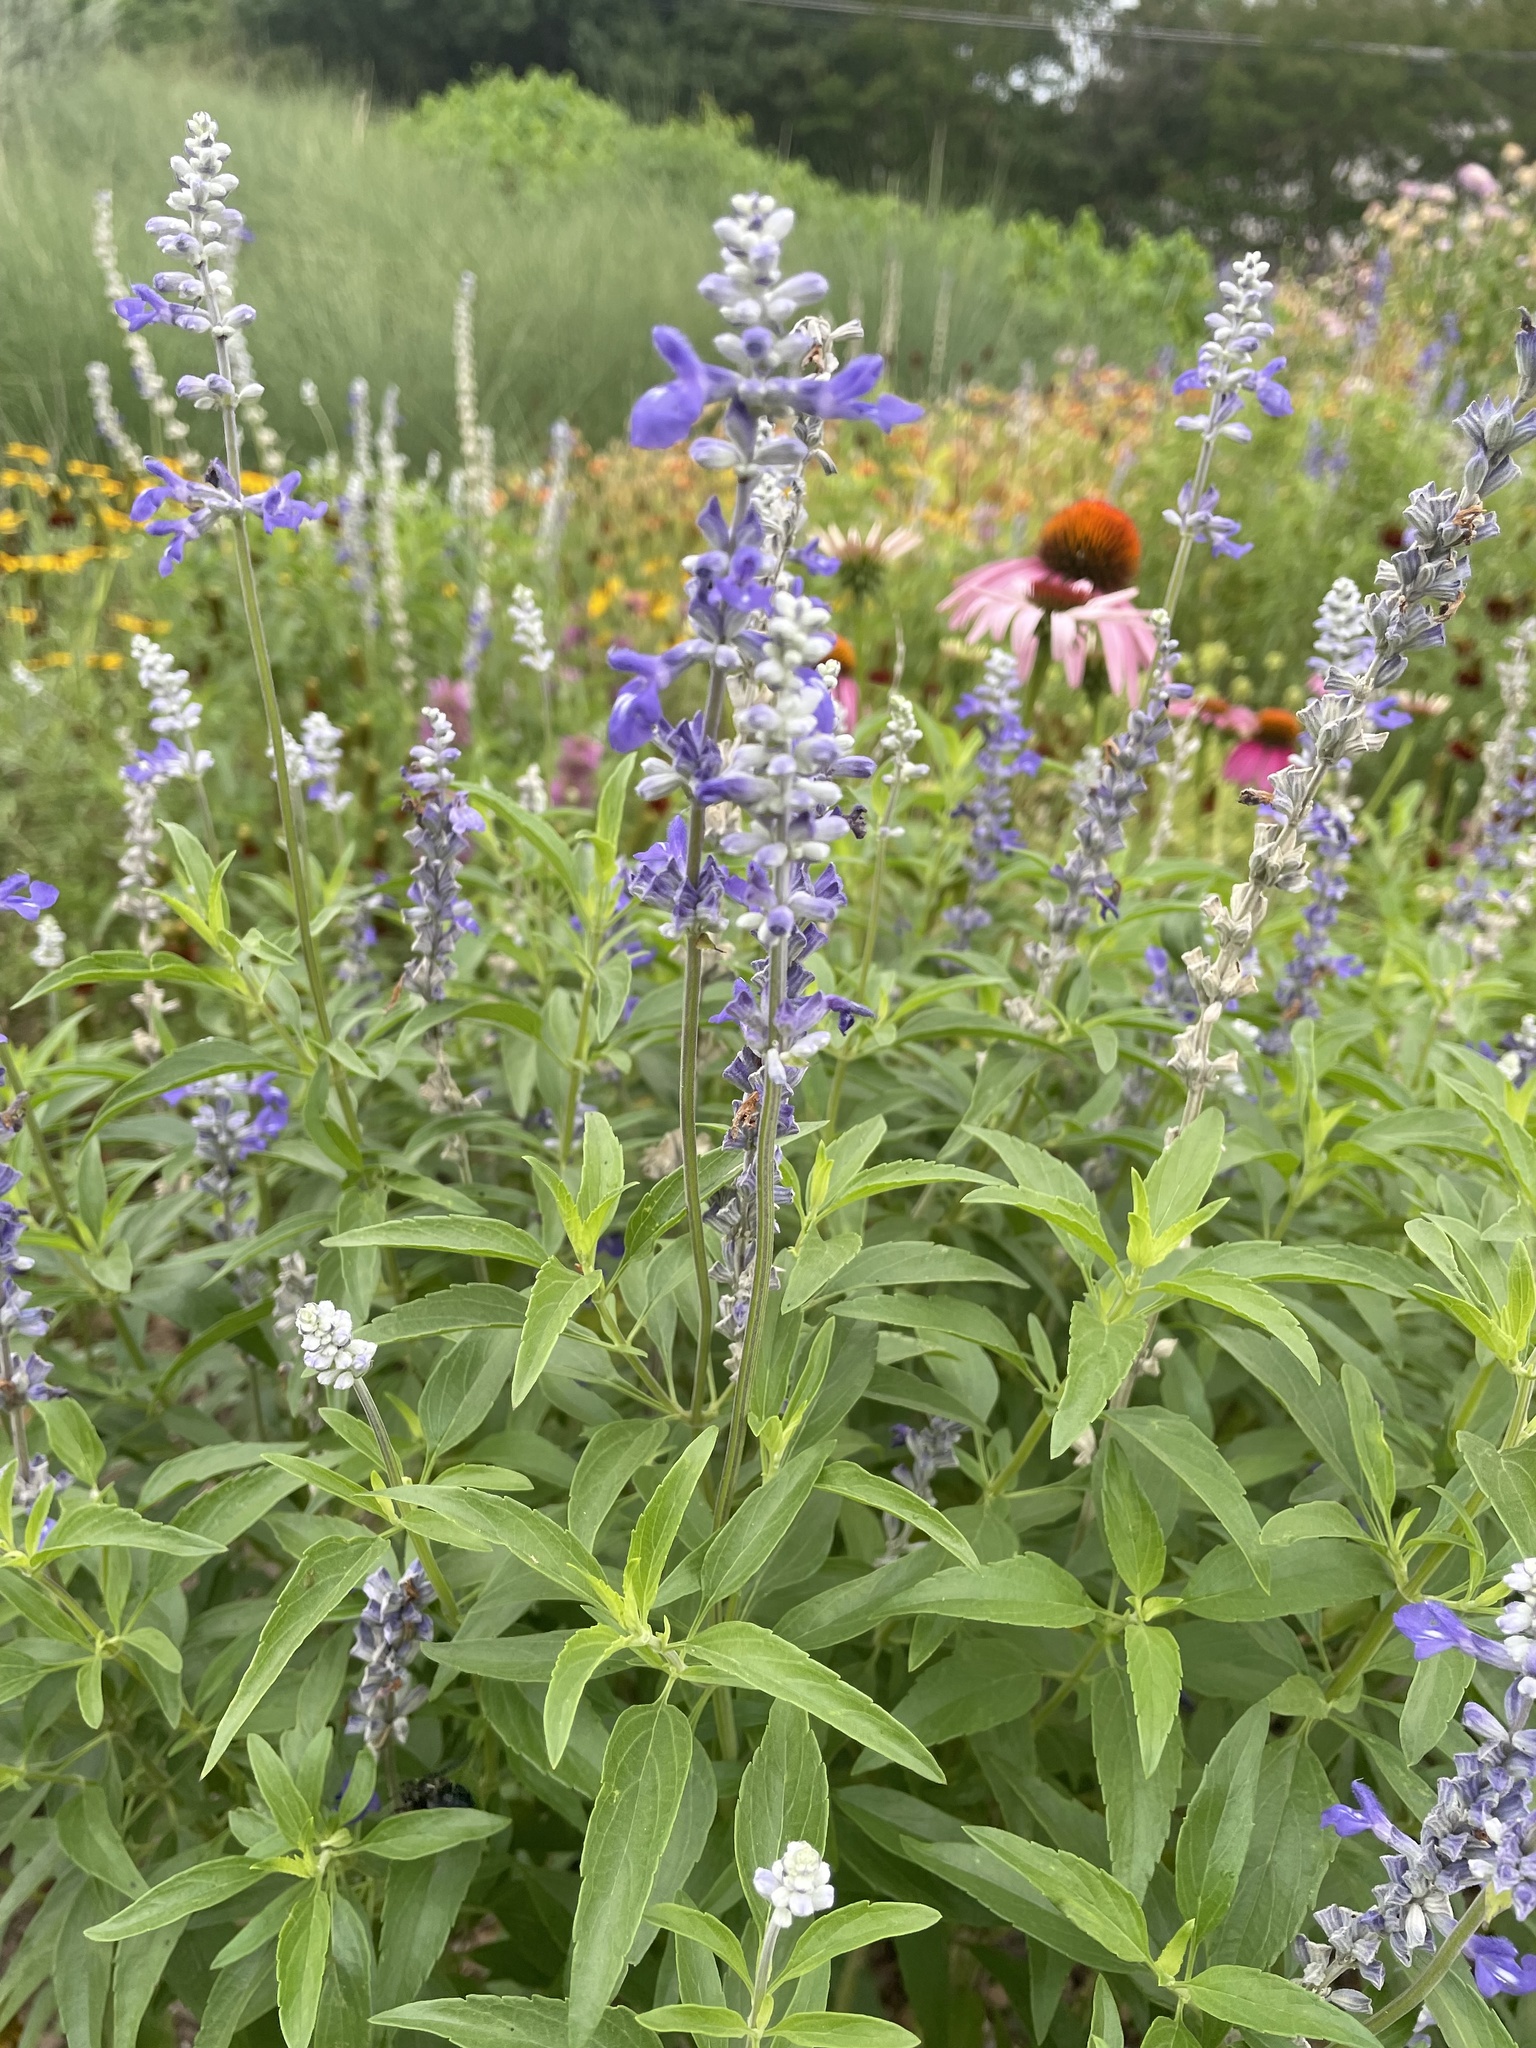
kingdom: Plantae
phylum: Tracheophyta
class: Magnoliopsida
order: Lamiales
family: Lamiaceae
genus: Salvia
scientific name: Salvia farinacea
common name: Mealy sage
